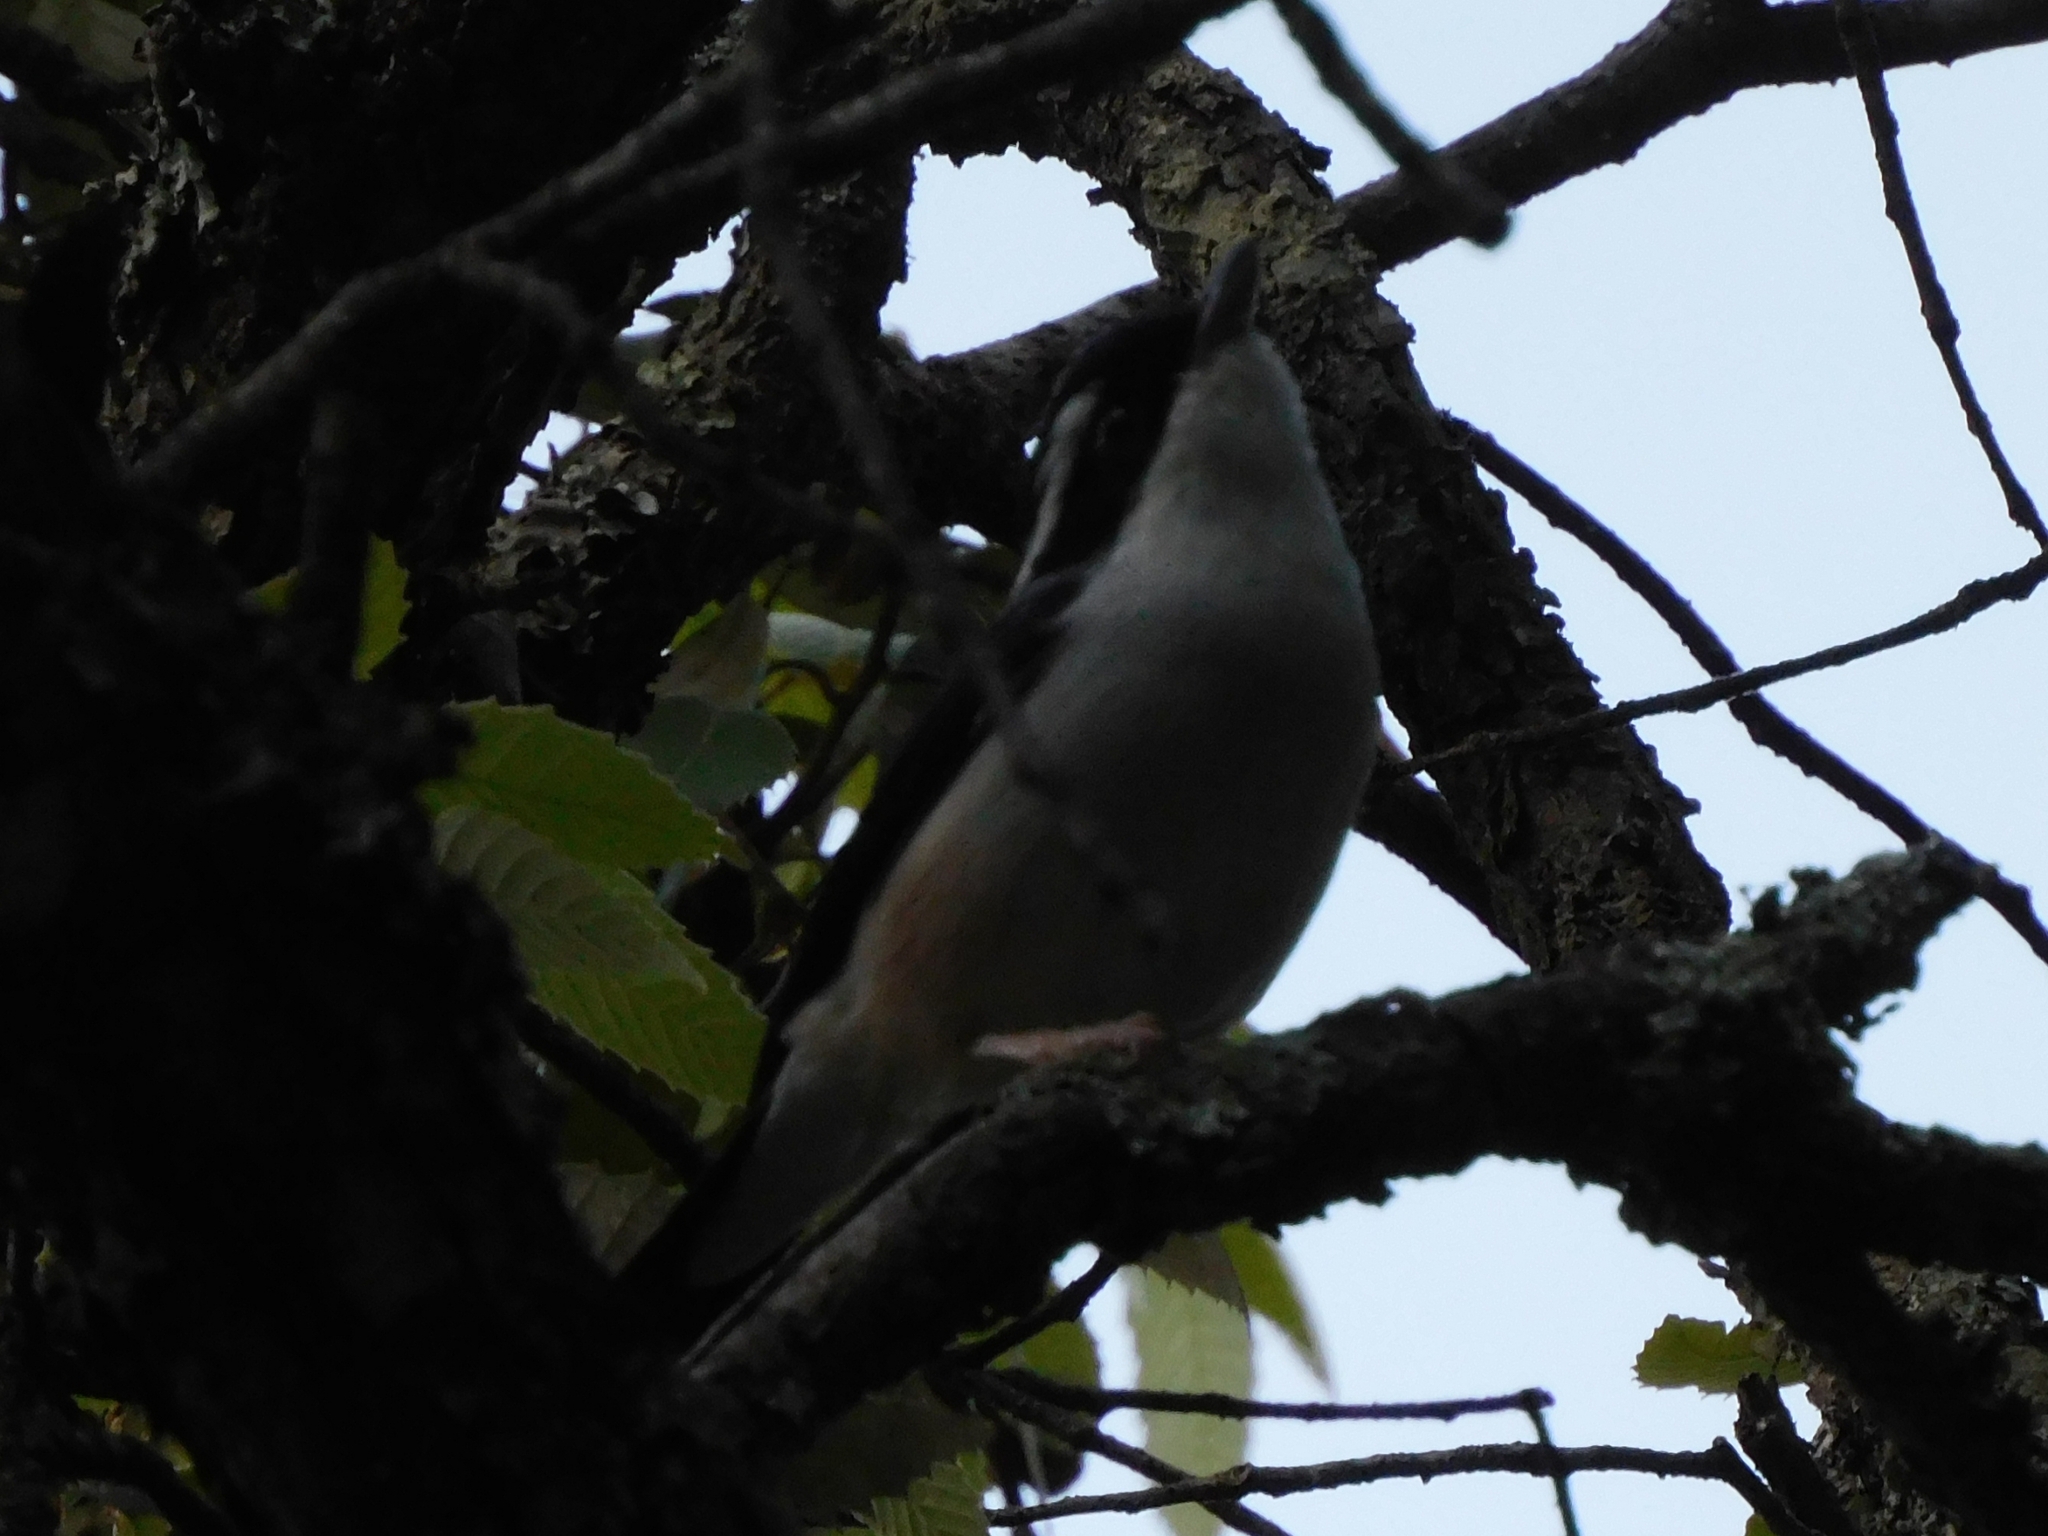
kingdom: Animalia
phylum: Chordata
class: Aves
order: Passeriformes
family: Vireonidae
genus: Pteruthius
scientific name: Pteruthius aeralatus
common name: Blyth's shrike-babbler
